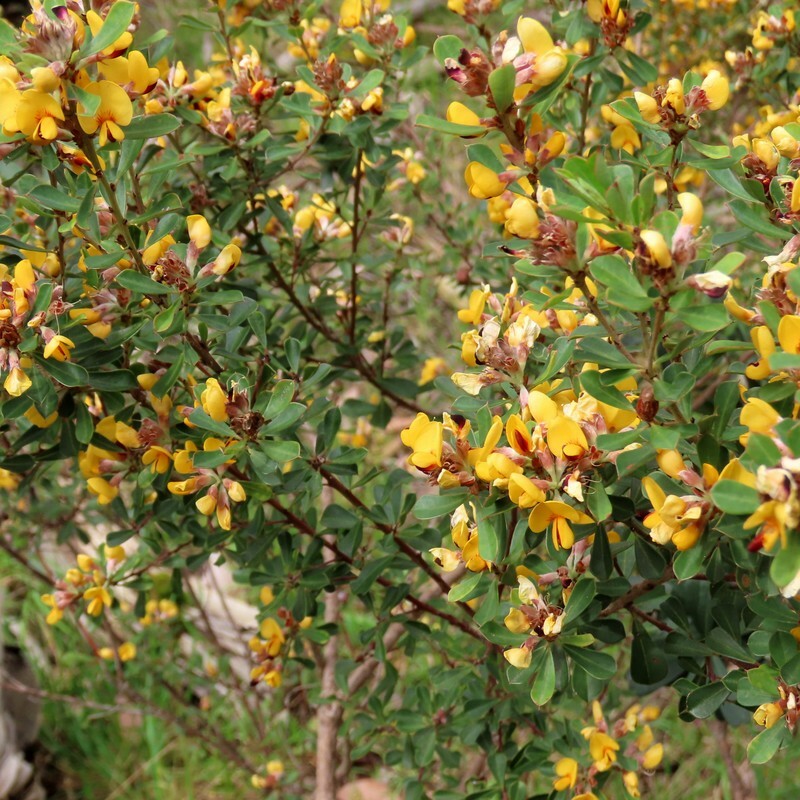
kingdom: Plantae
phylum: Tracheophyta
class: Magnoliopsida
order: Fabales
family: Fabaceae
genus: Pultenaea
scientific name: Pultenaea daphnoides
